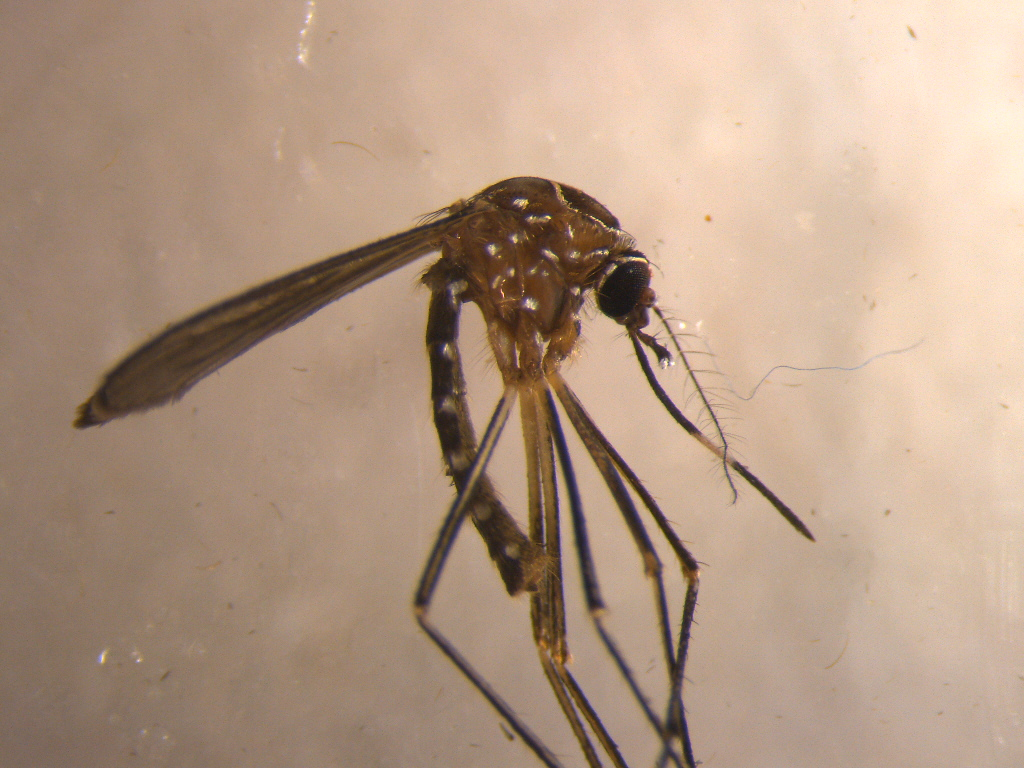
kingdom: Animalia
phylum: Arthropoda
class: Insecta
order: Diptera
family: Culicidae
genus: Aedes
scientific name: Aedes notoscriptus
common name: Australian backyard mosquito
